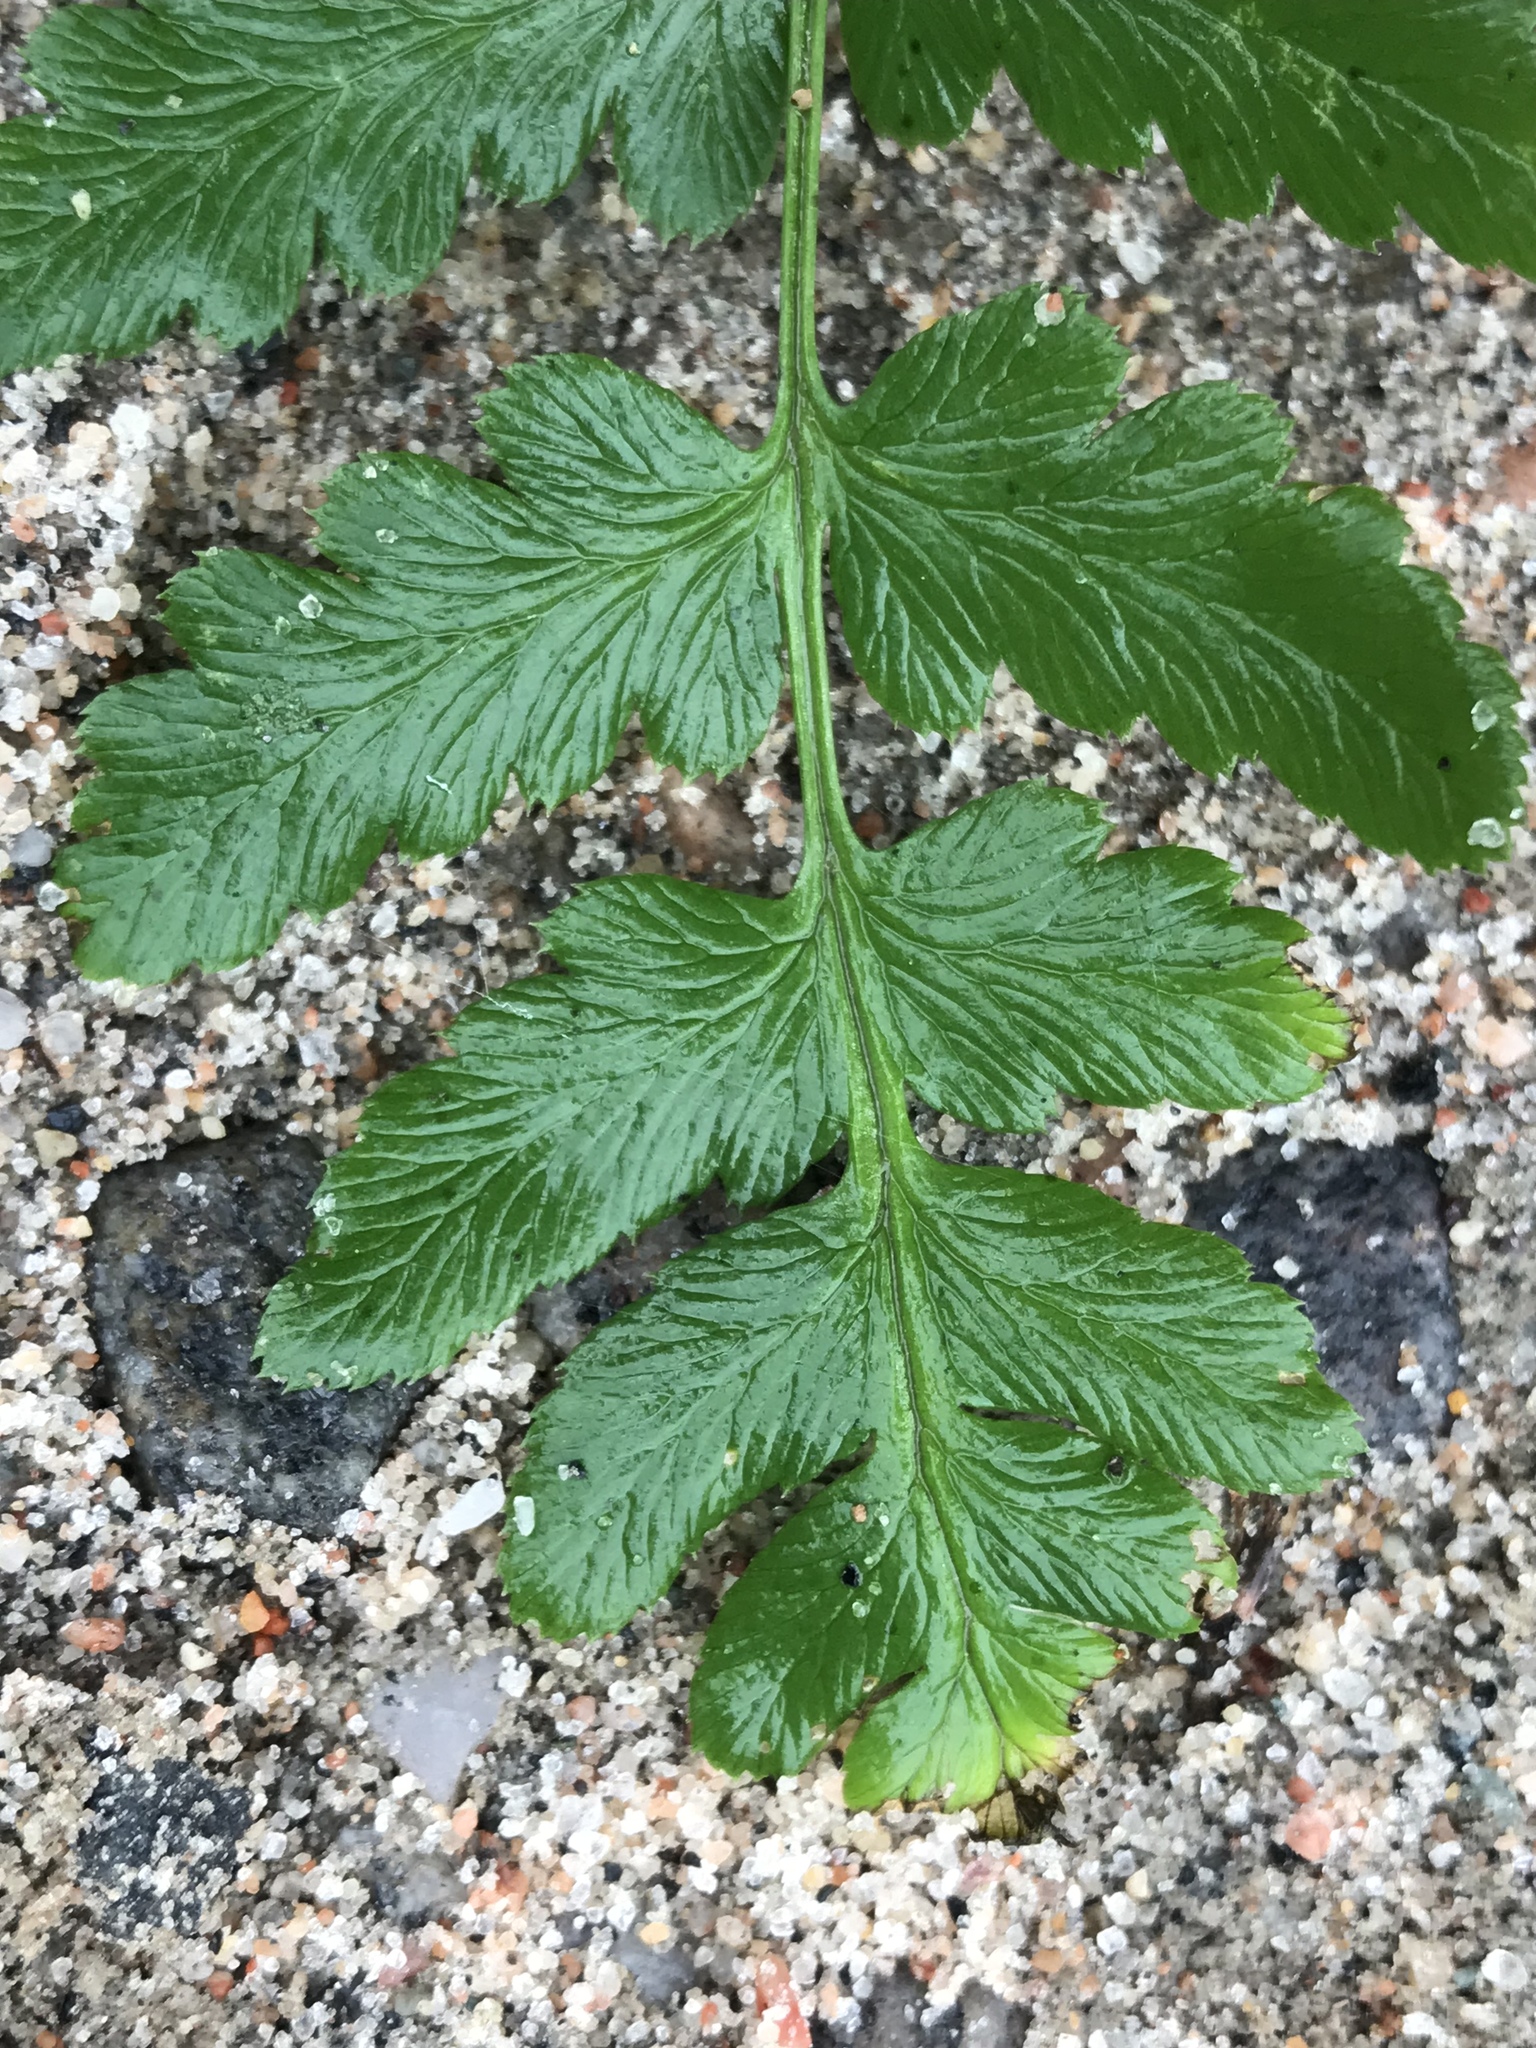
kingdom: Plantae
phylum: Tracheophyta
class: Polypodiopsida
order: Polypodiales
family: Dryopteridaceae
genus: Dryopteris
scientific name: Dryopteris cristata
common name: Crested wood fern
